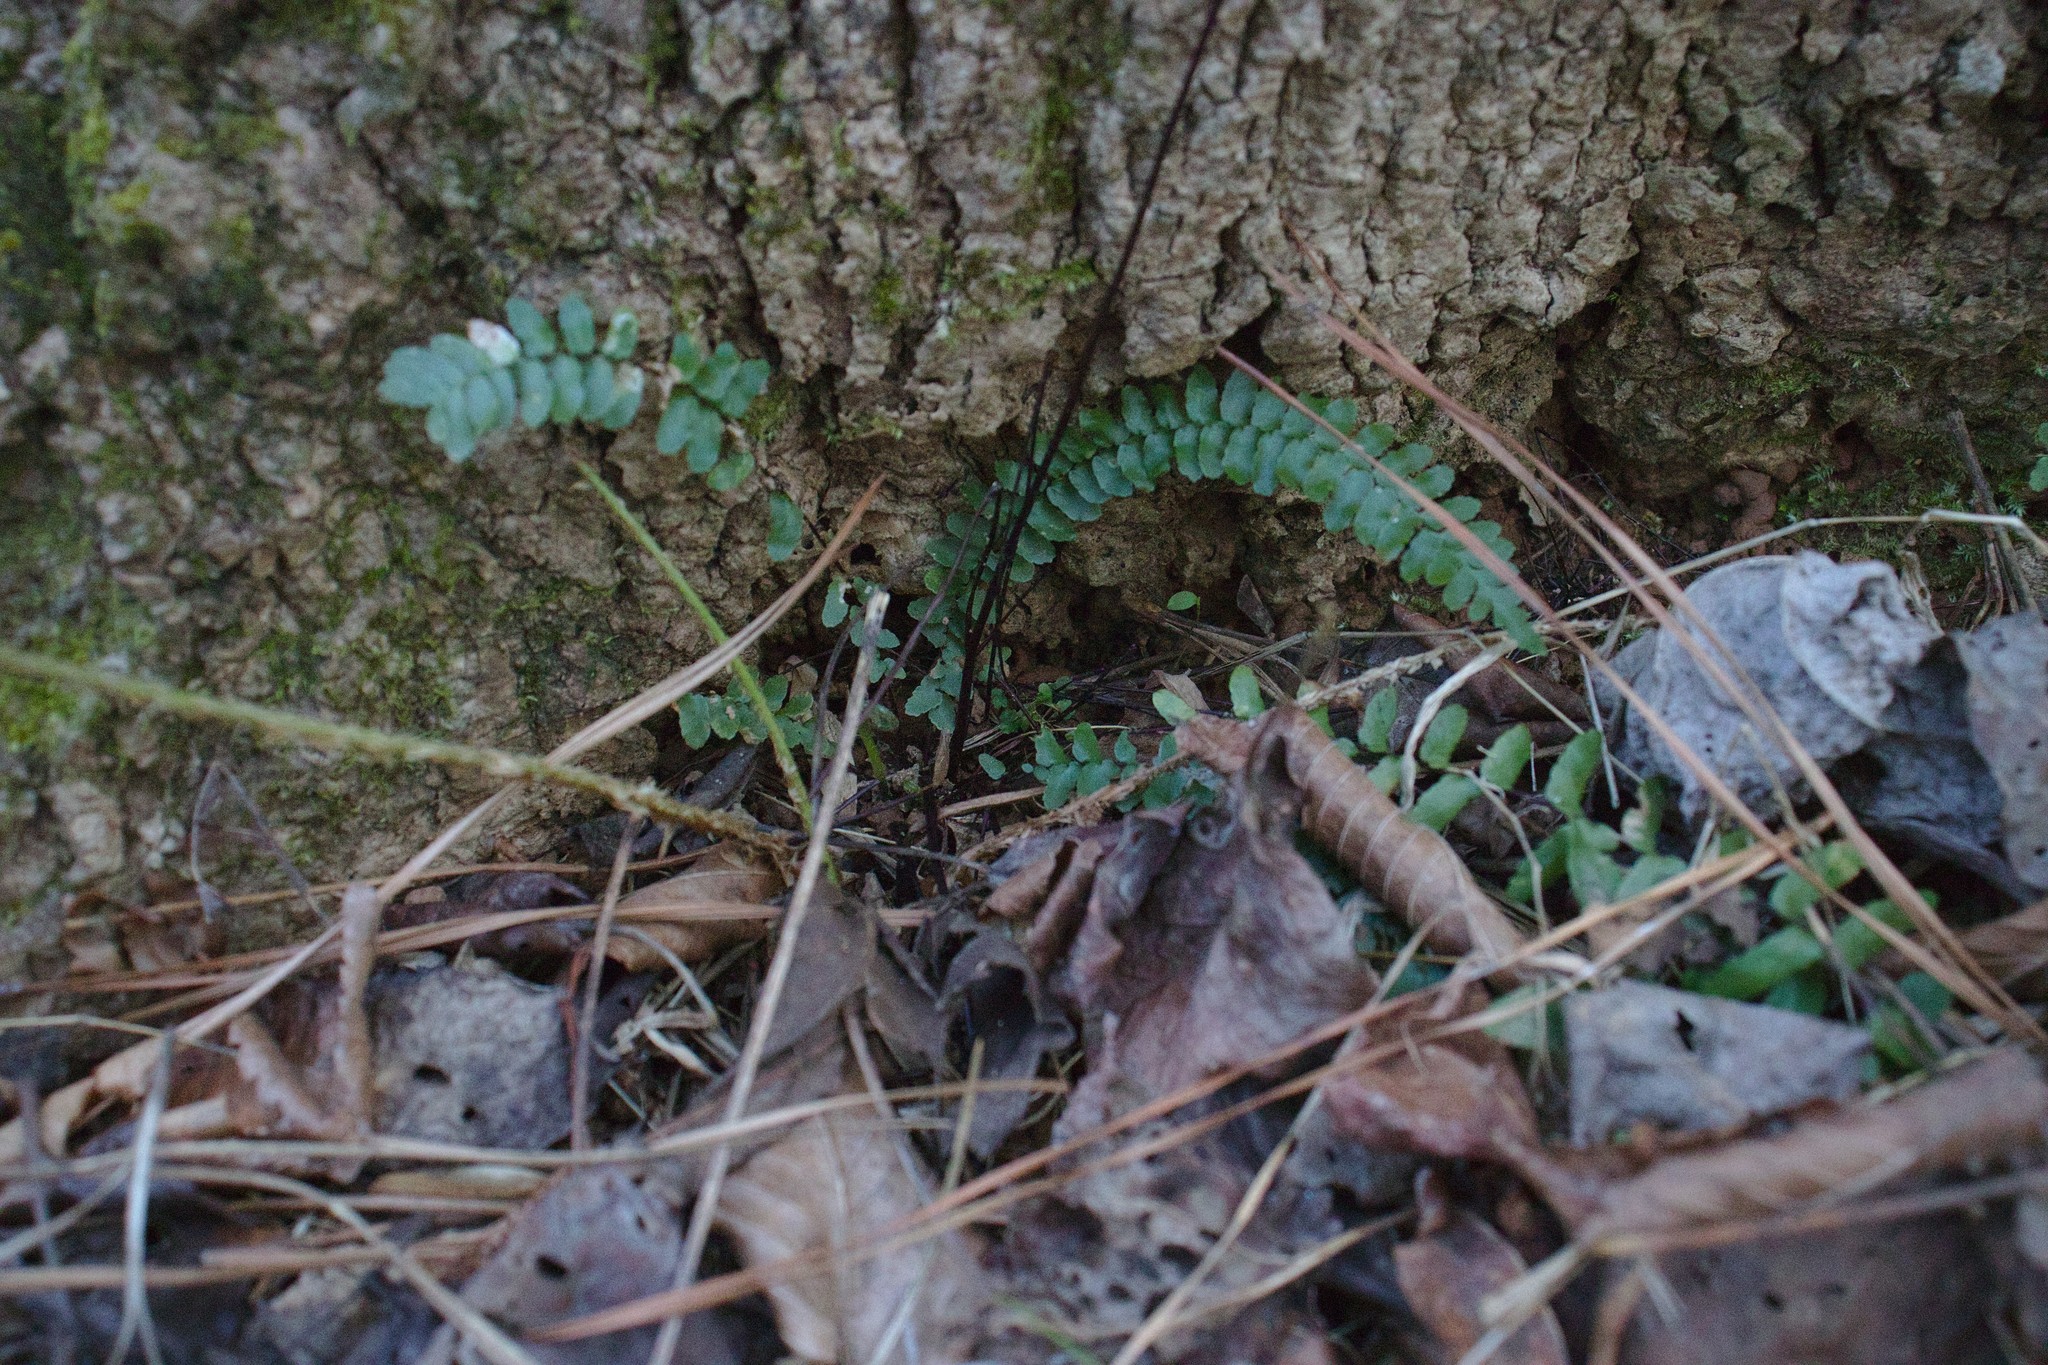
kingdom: Plantae
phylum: Tracheophyta
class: Polypodiopsida
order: Polypodiales
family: Aspleniaceae
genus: Asplenium
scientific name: Asplenium platyneuron
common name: Ebony spleenwort
